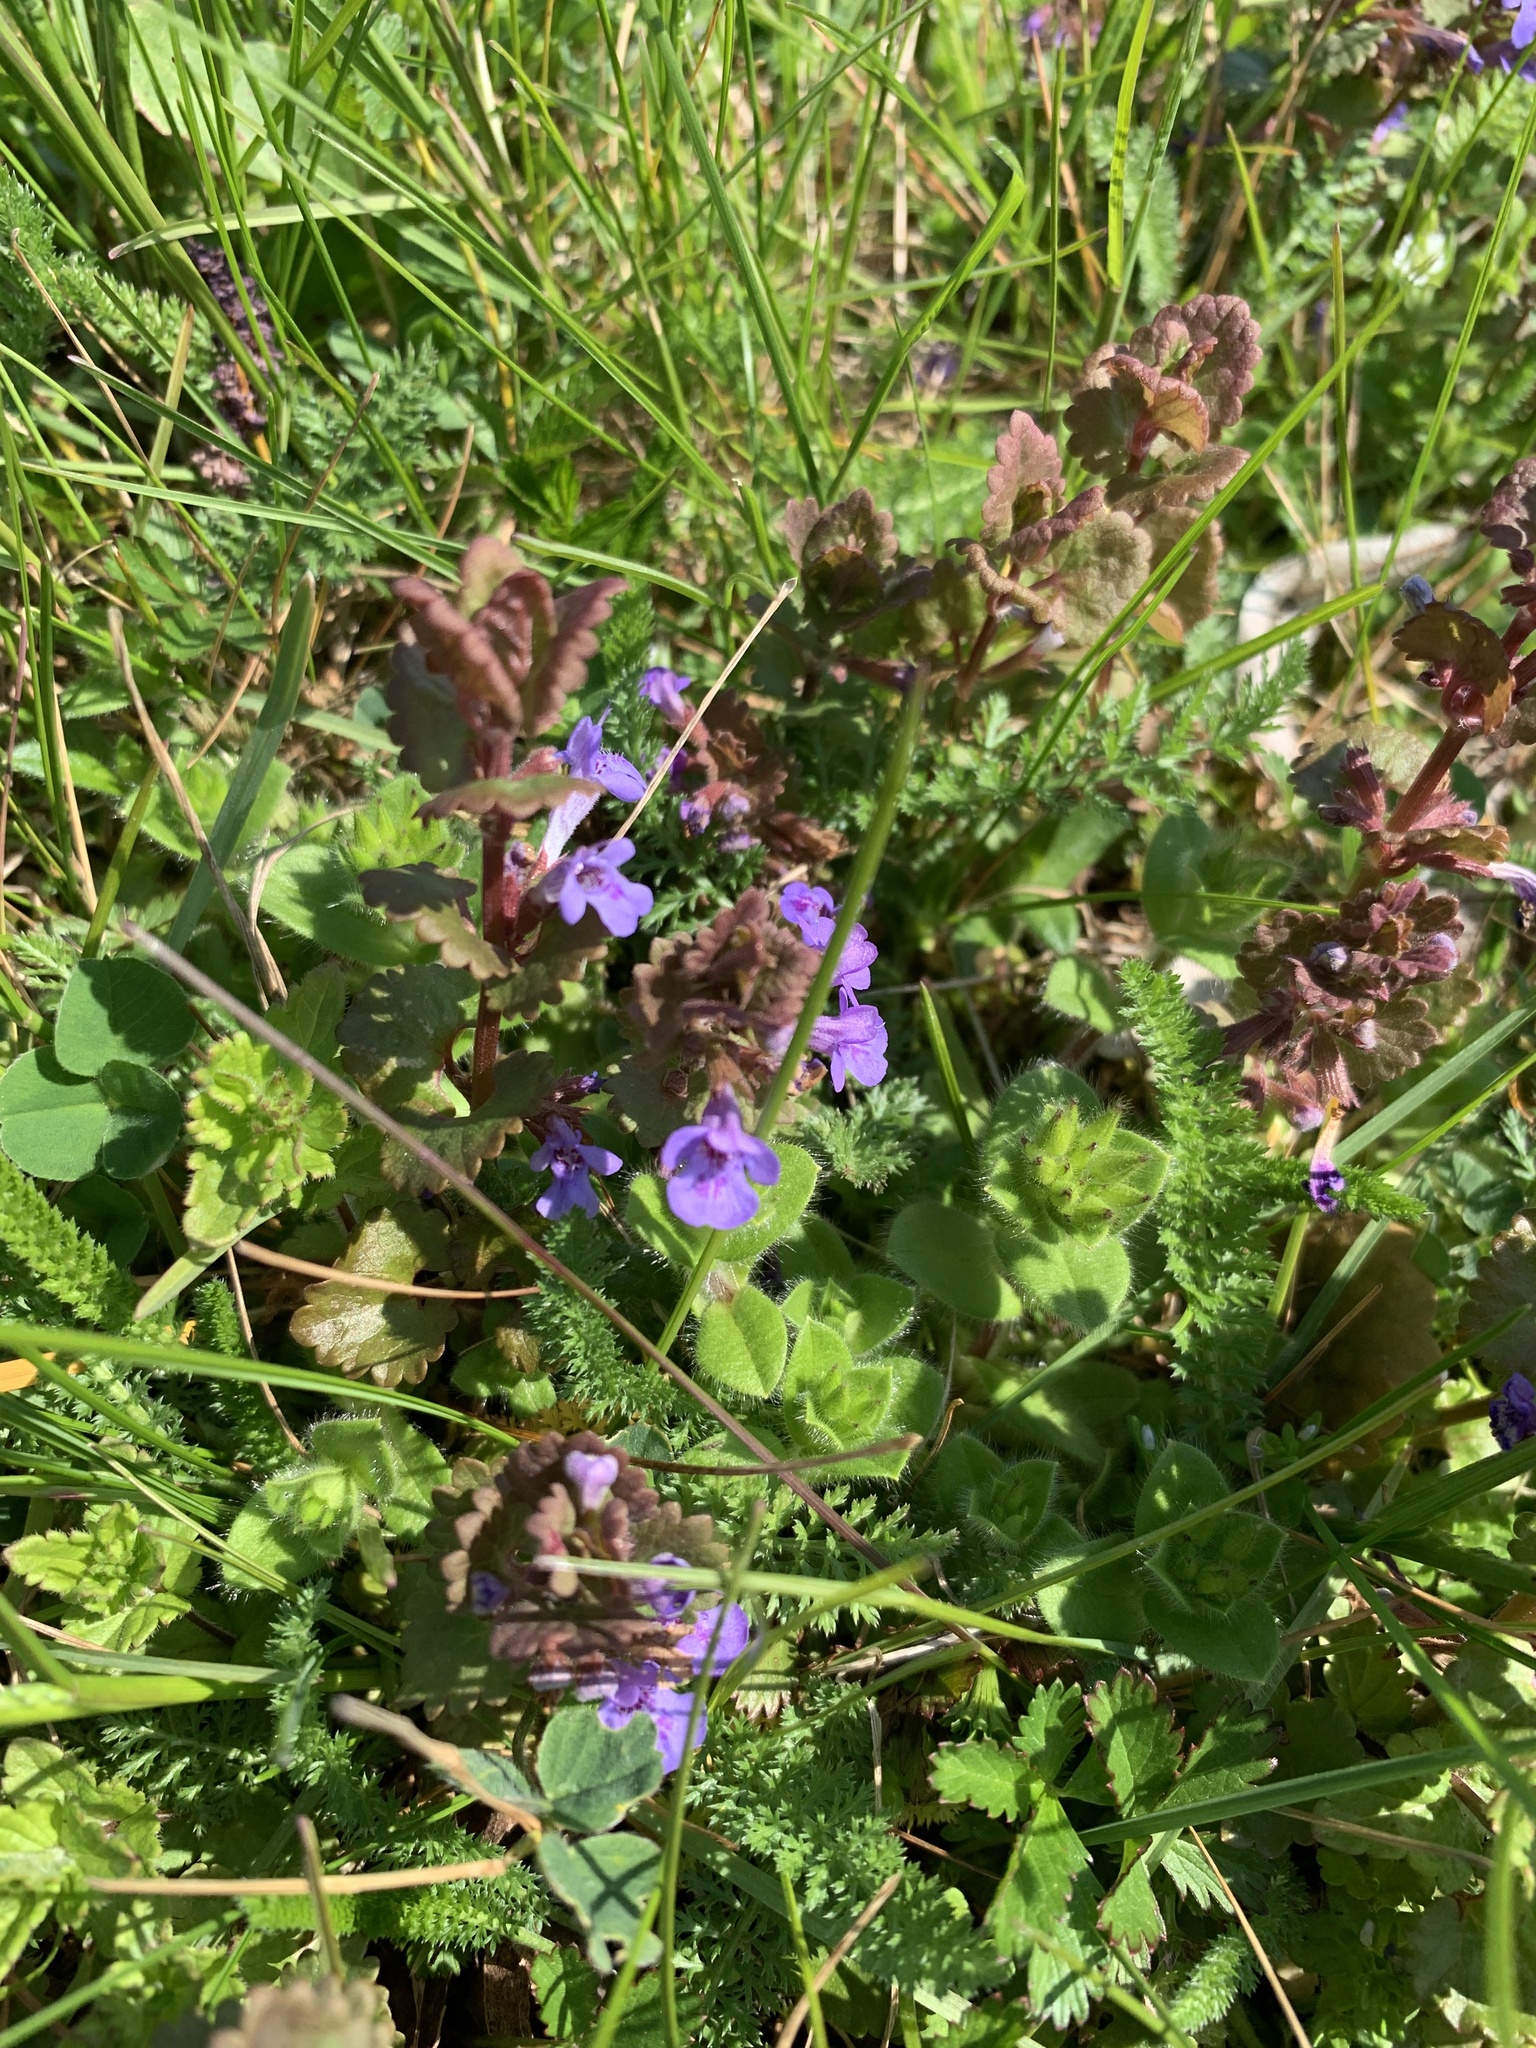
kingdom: Plantae
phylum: Tracheophyta
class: Magnoliopsida
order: Lamiales
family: Lamiaceae
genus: Glechoma
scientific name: Glechoma hederacea
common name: Ground ivy
